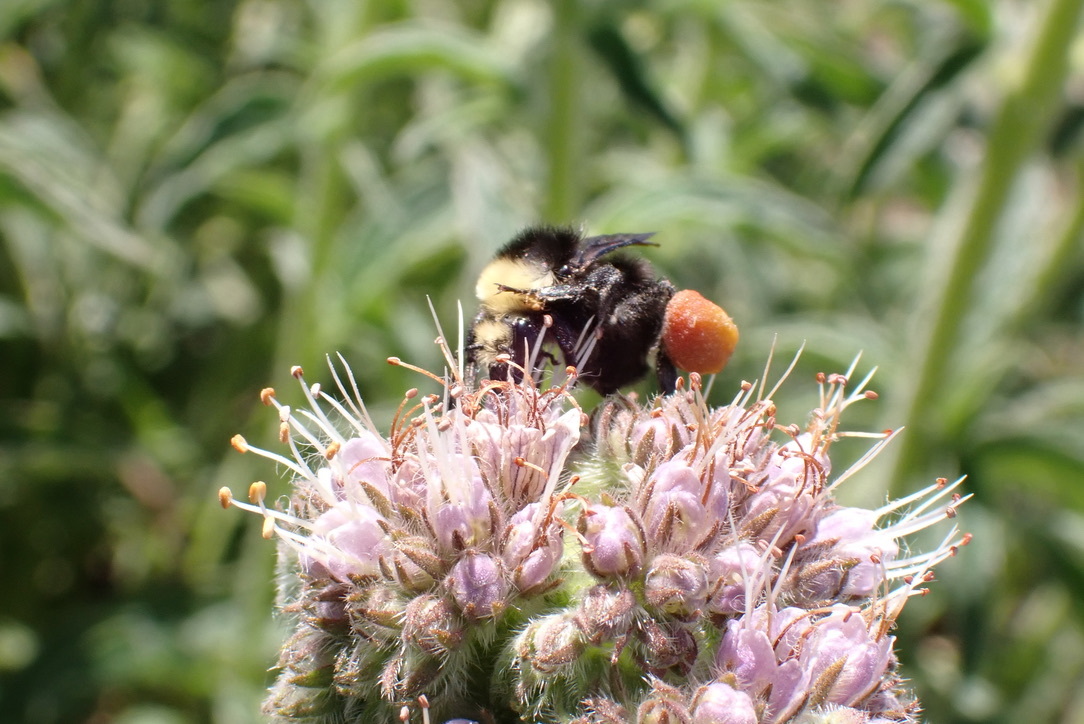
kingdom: Plantae
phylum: Tracheophyta
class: Magnoliopsida
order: Boraginales
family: Hydrophyllaceae
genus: Phacelia
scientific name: Phacelia californica
